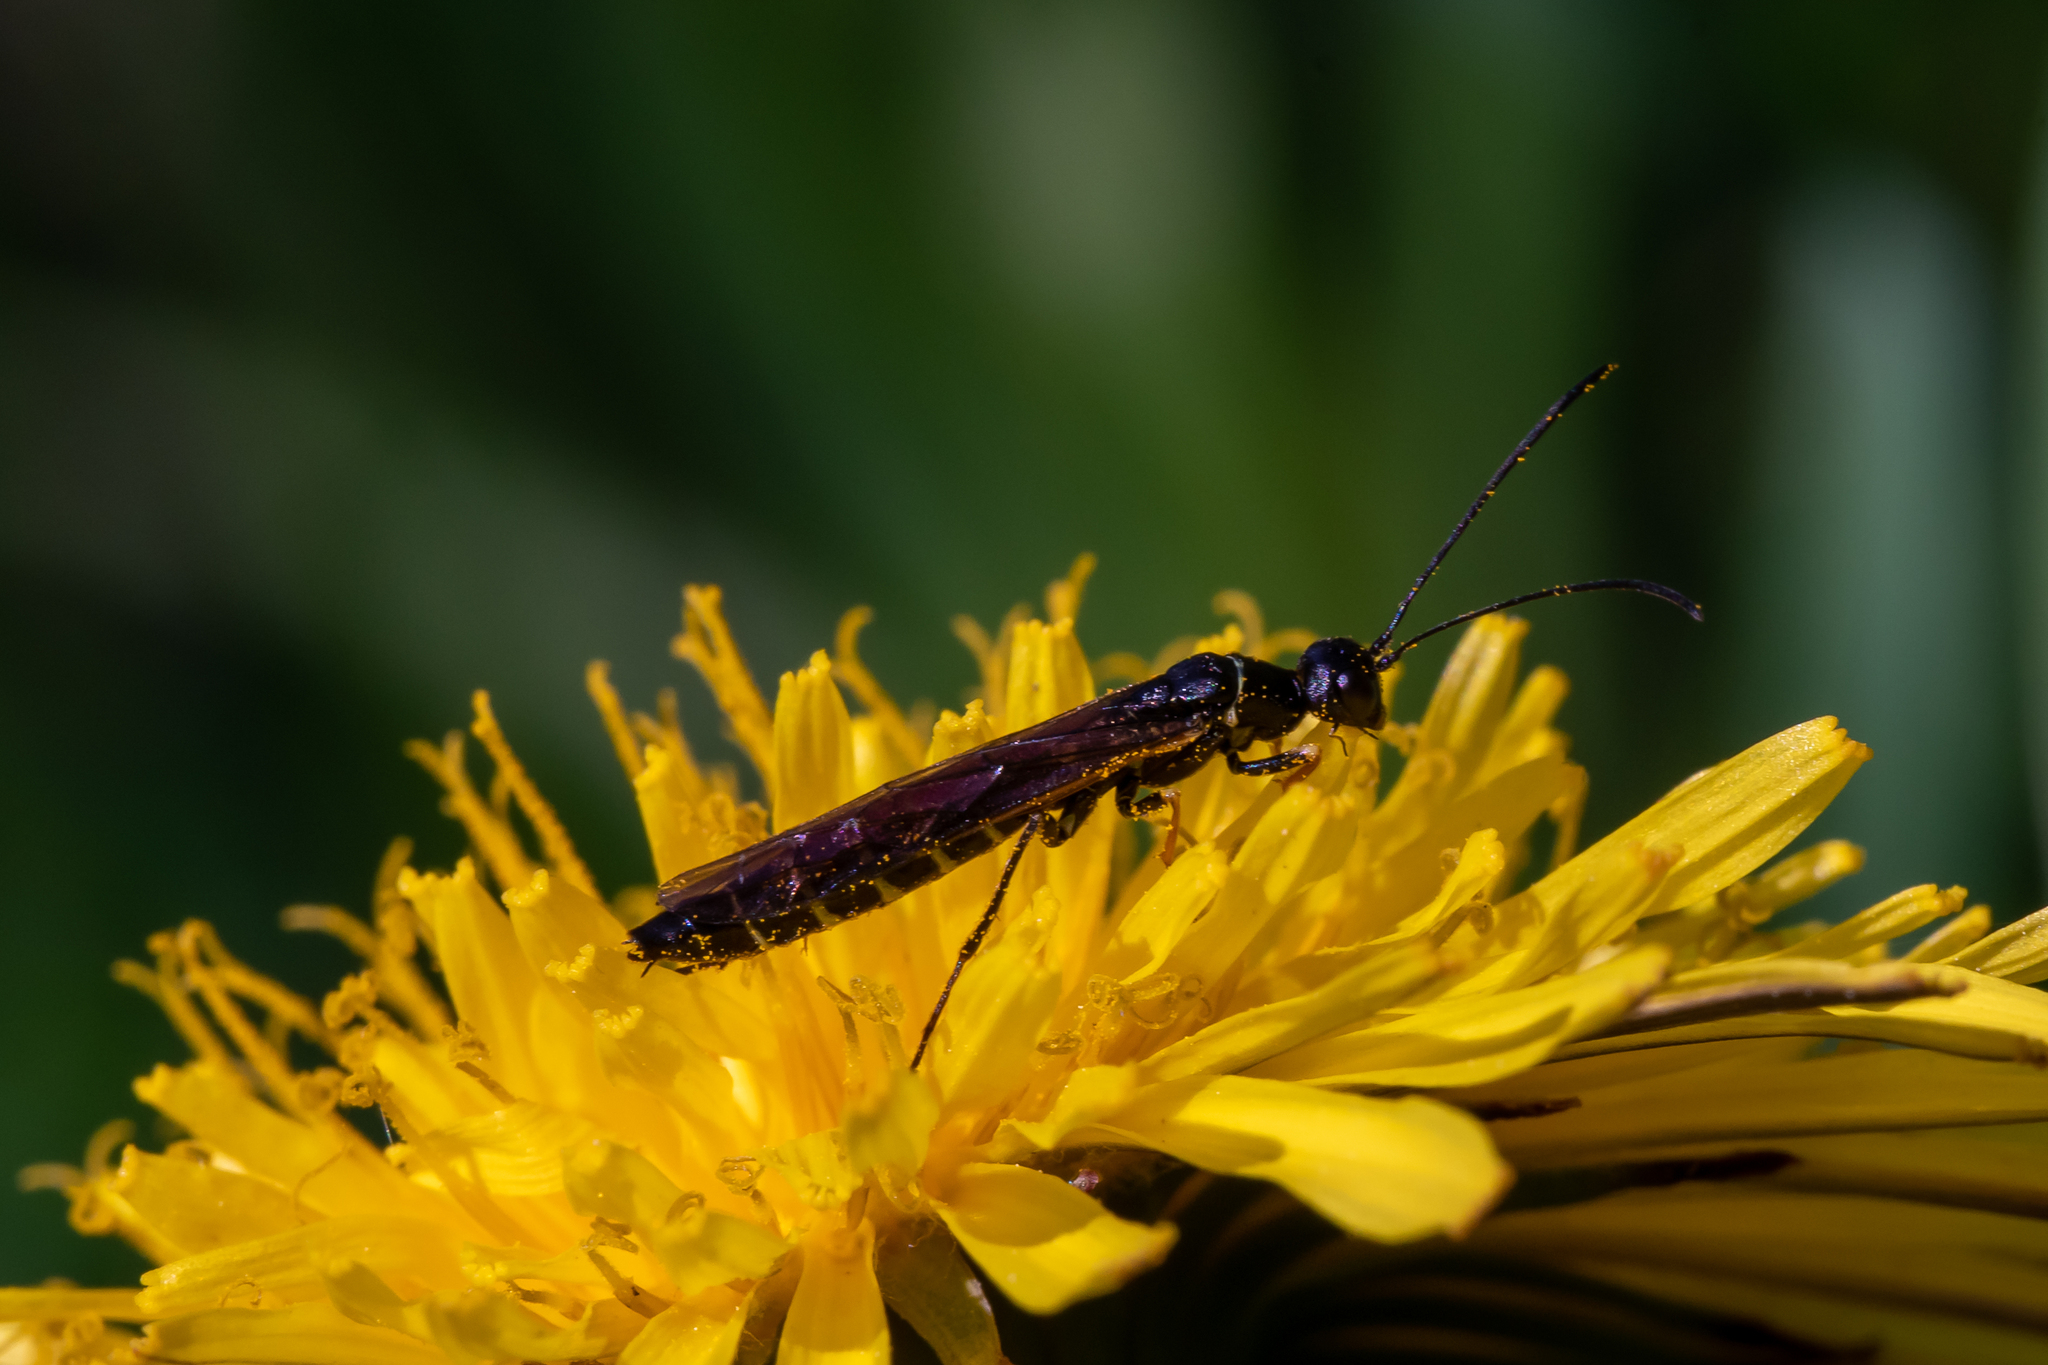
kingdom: Animalia
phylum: Arthropoda
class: Insecta
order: Hymenoptera
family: Cephidae
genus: Calameuta
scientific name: Calameuta filiformis
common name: Reed stem borer
